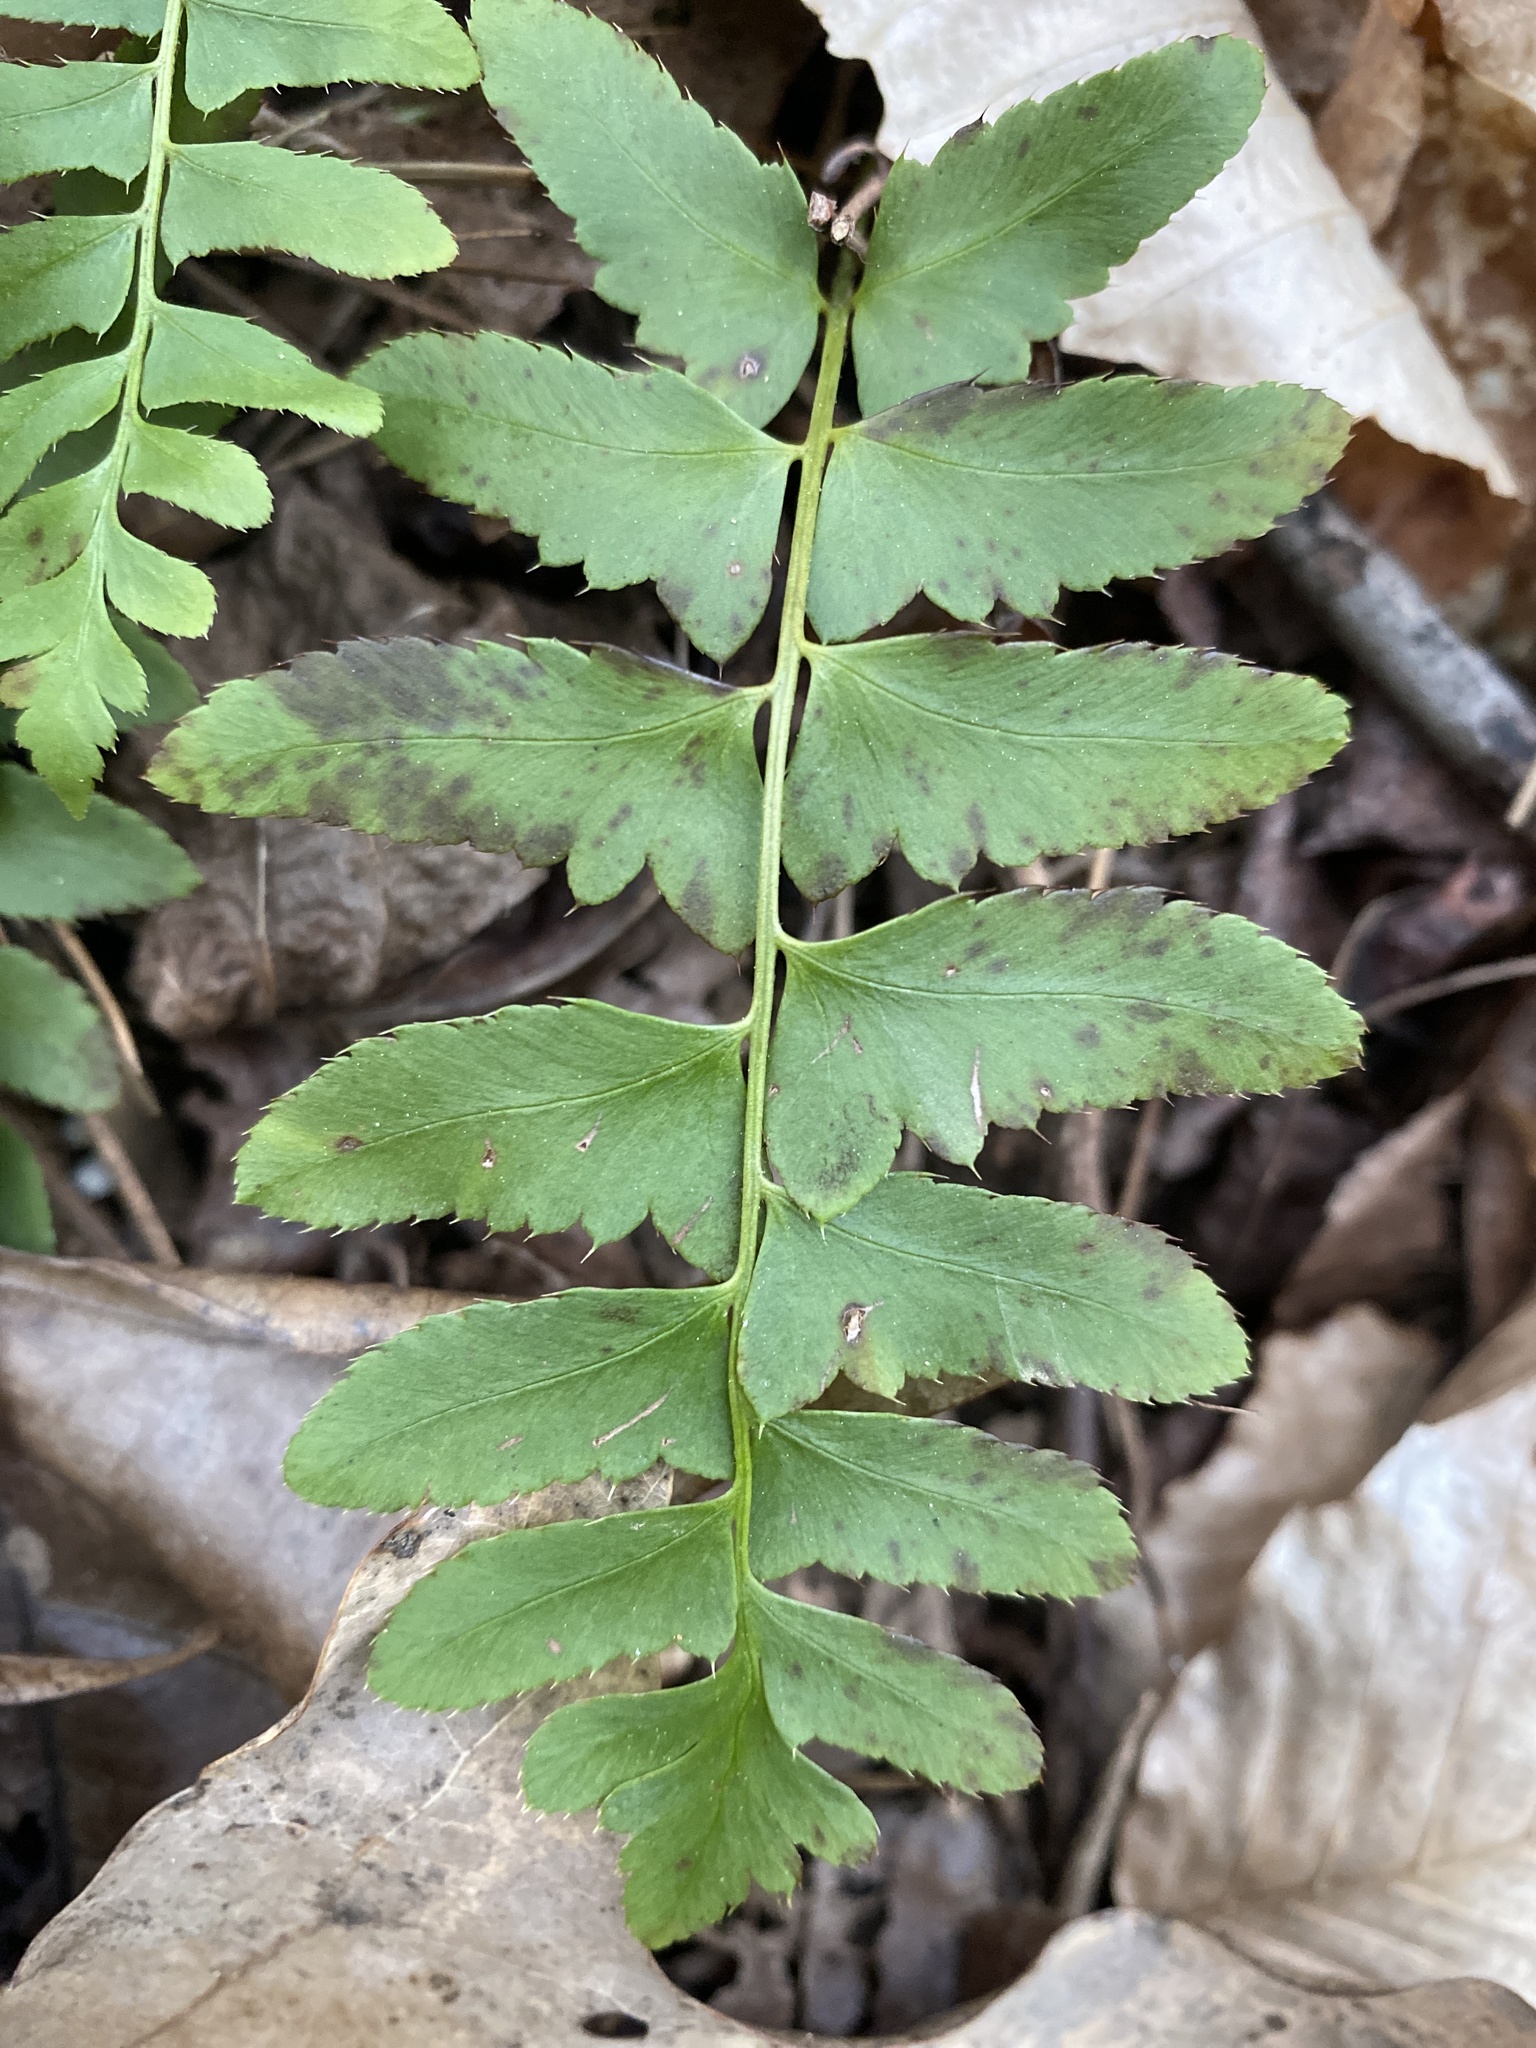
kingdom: Plantae
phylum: Tracheophyta
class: Polypodiopsida
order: Polypodiales
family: Dryopteridaceae
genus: Polystichum
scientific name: Polystichum acrostichoides
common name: Christmas fern
